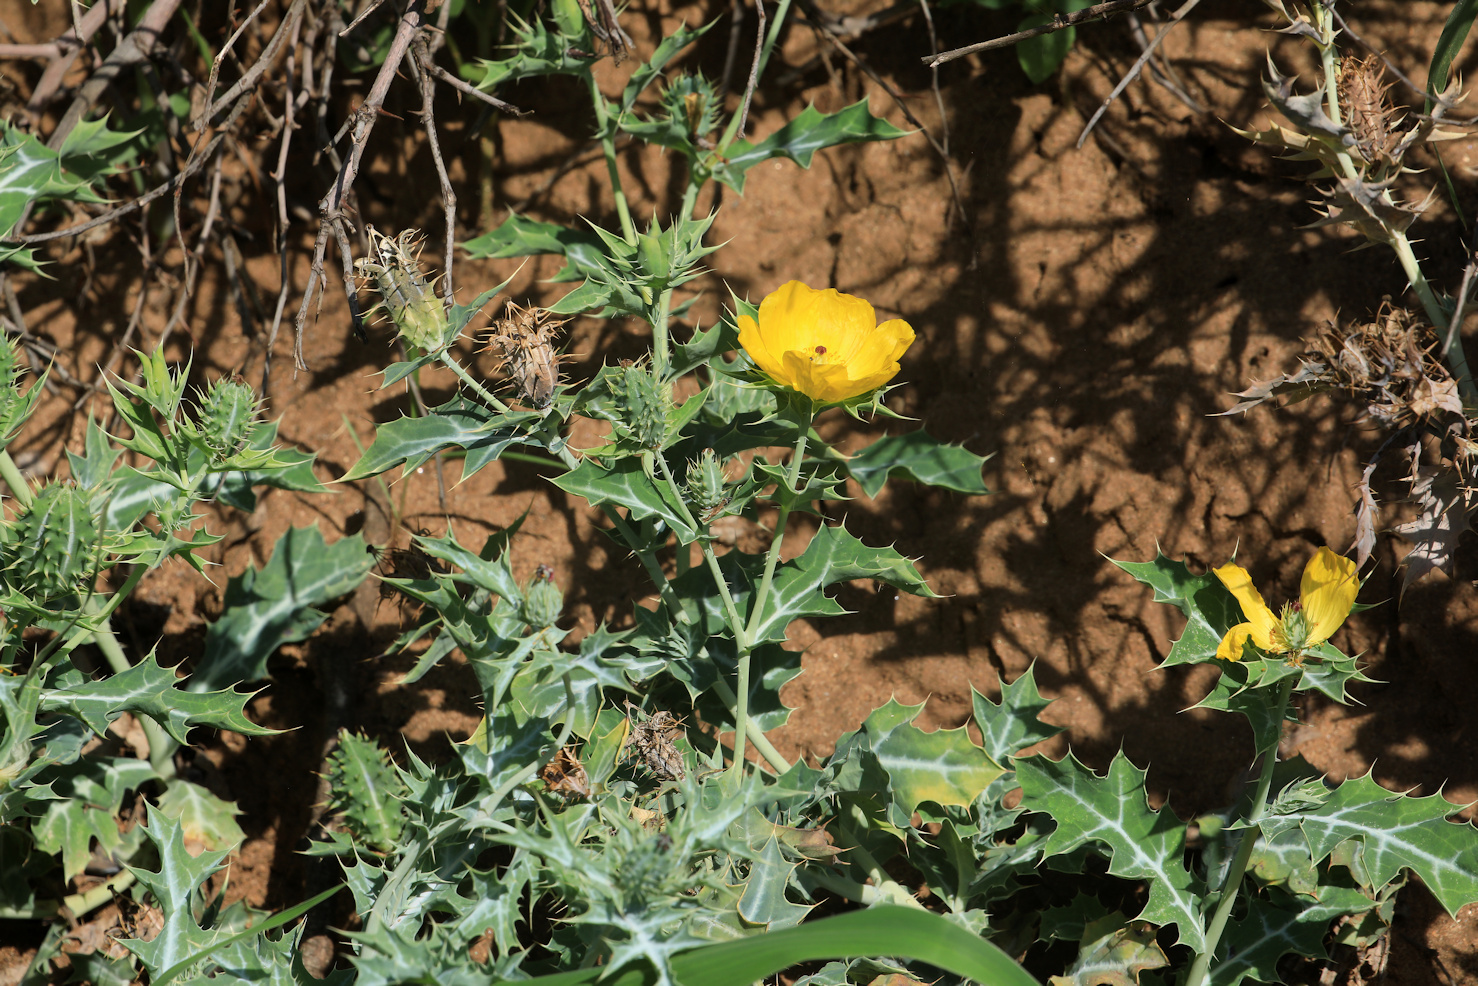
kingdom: Plantae
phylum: Tracheophyta
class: Magnoliopsida
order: Ranunculales
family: Papaveraceae
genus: Argemone
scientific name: Argemone mexicana
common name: Mexican poppy
